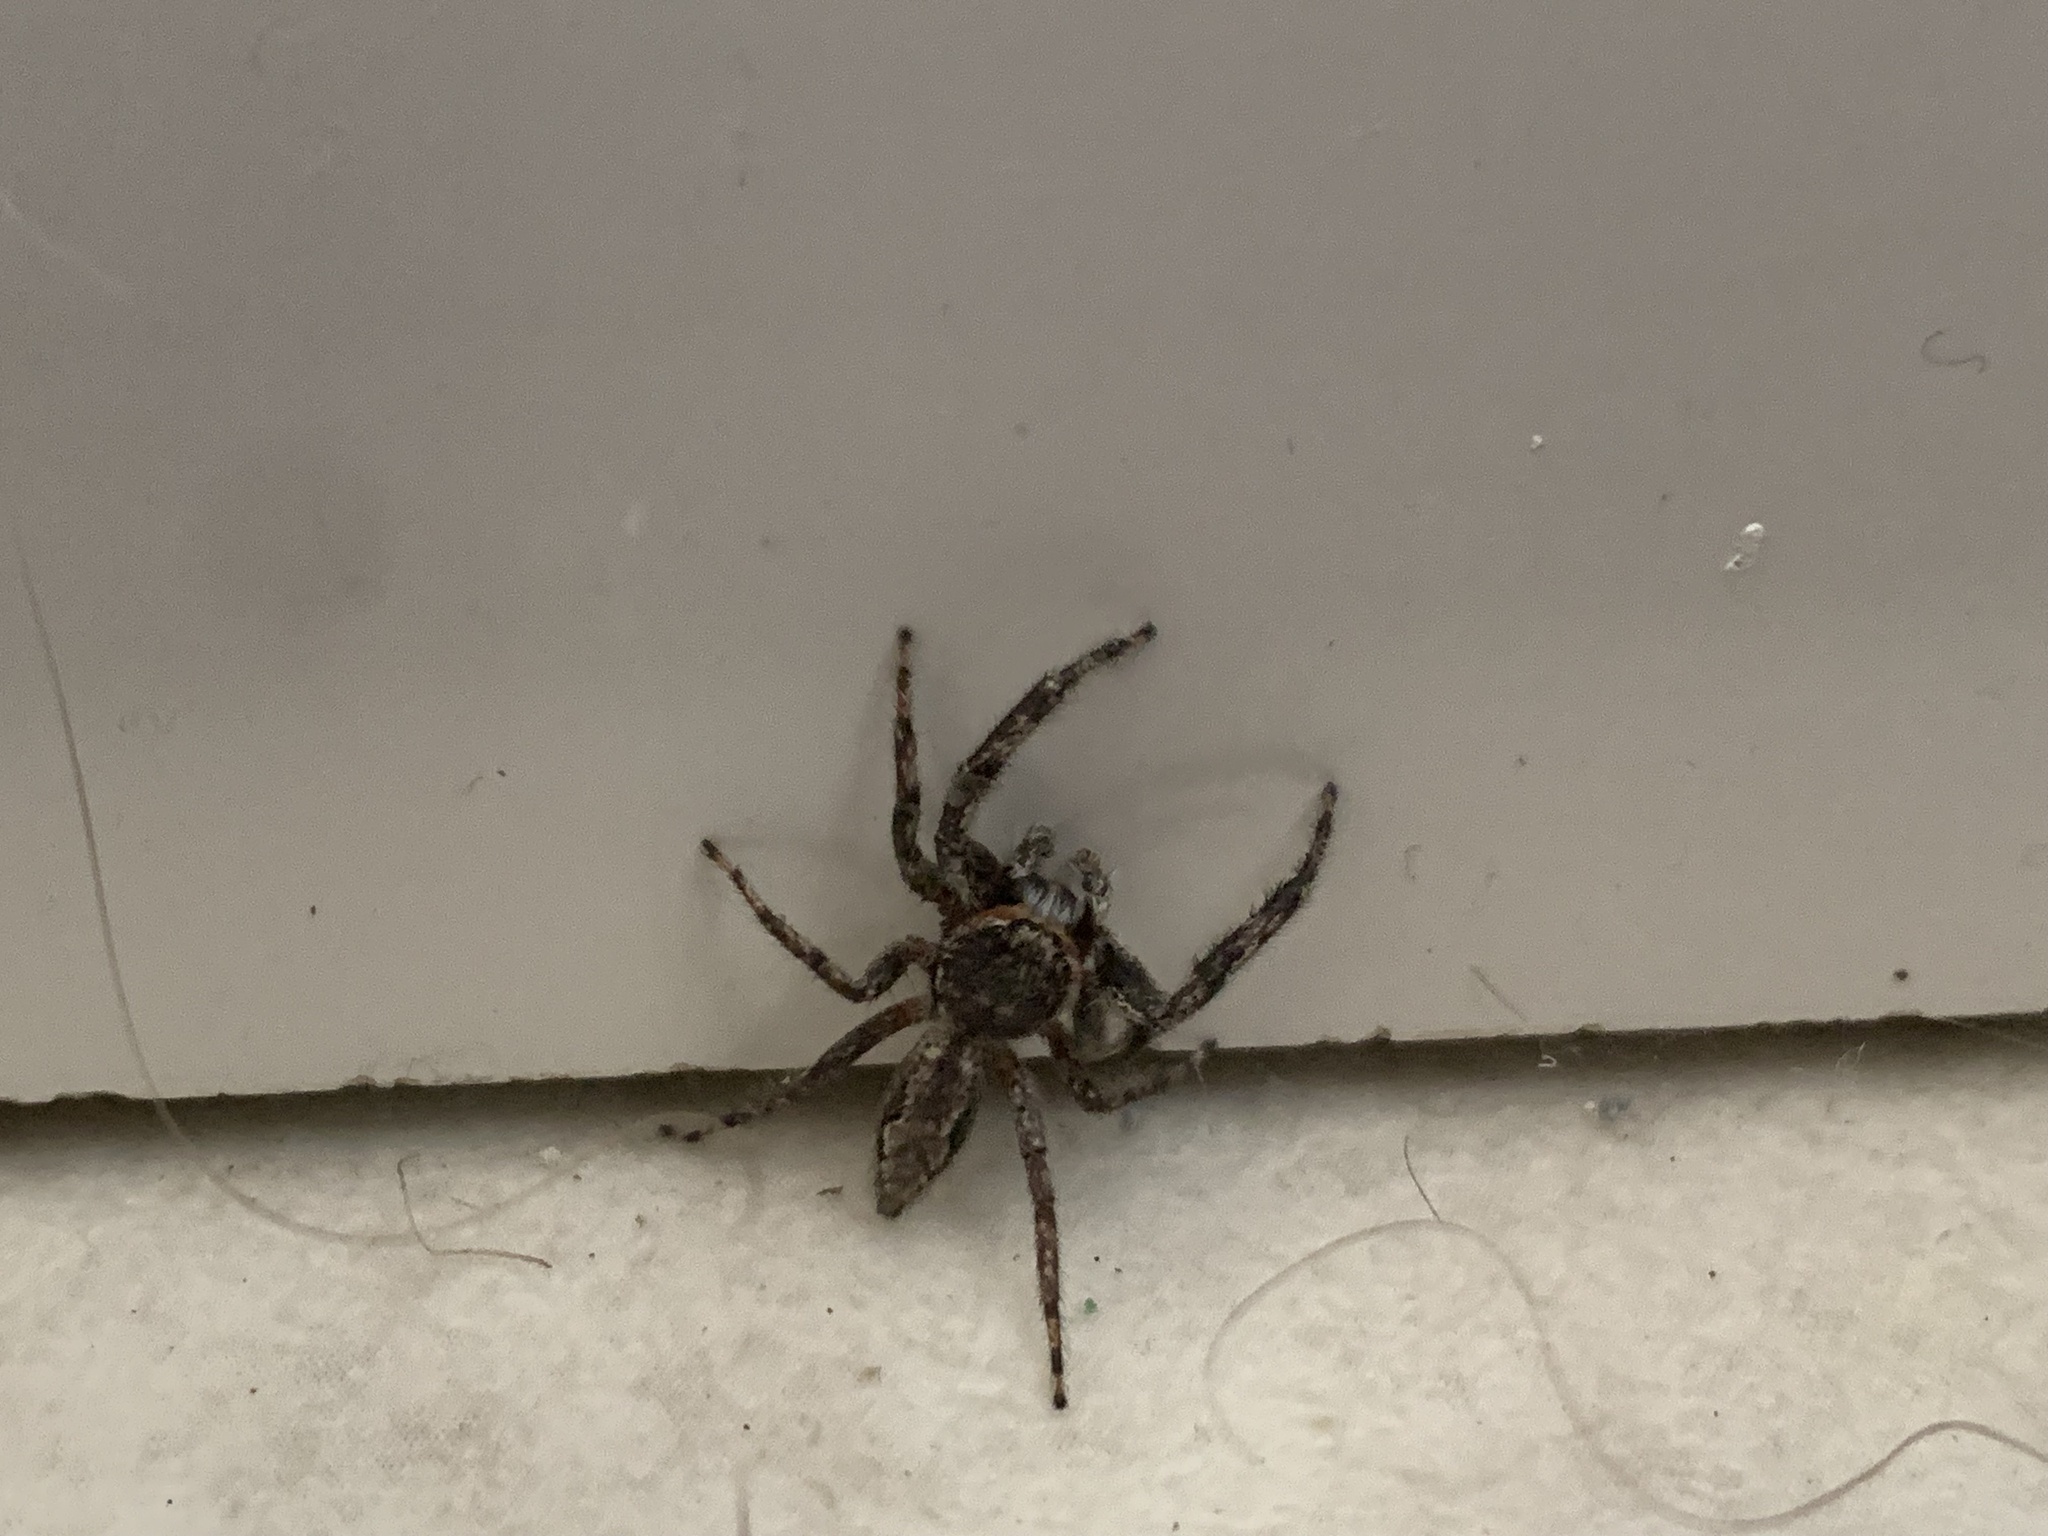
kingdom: Animalia
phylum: Arthropoda
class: Arachnida
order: Araneae
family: Salticidae
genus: Platycryptus
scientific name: Platycryptus undatus
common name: Tan jumping spider
